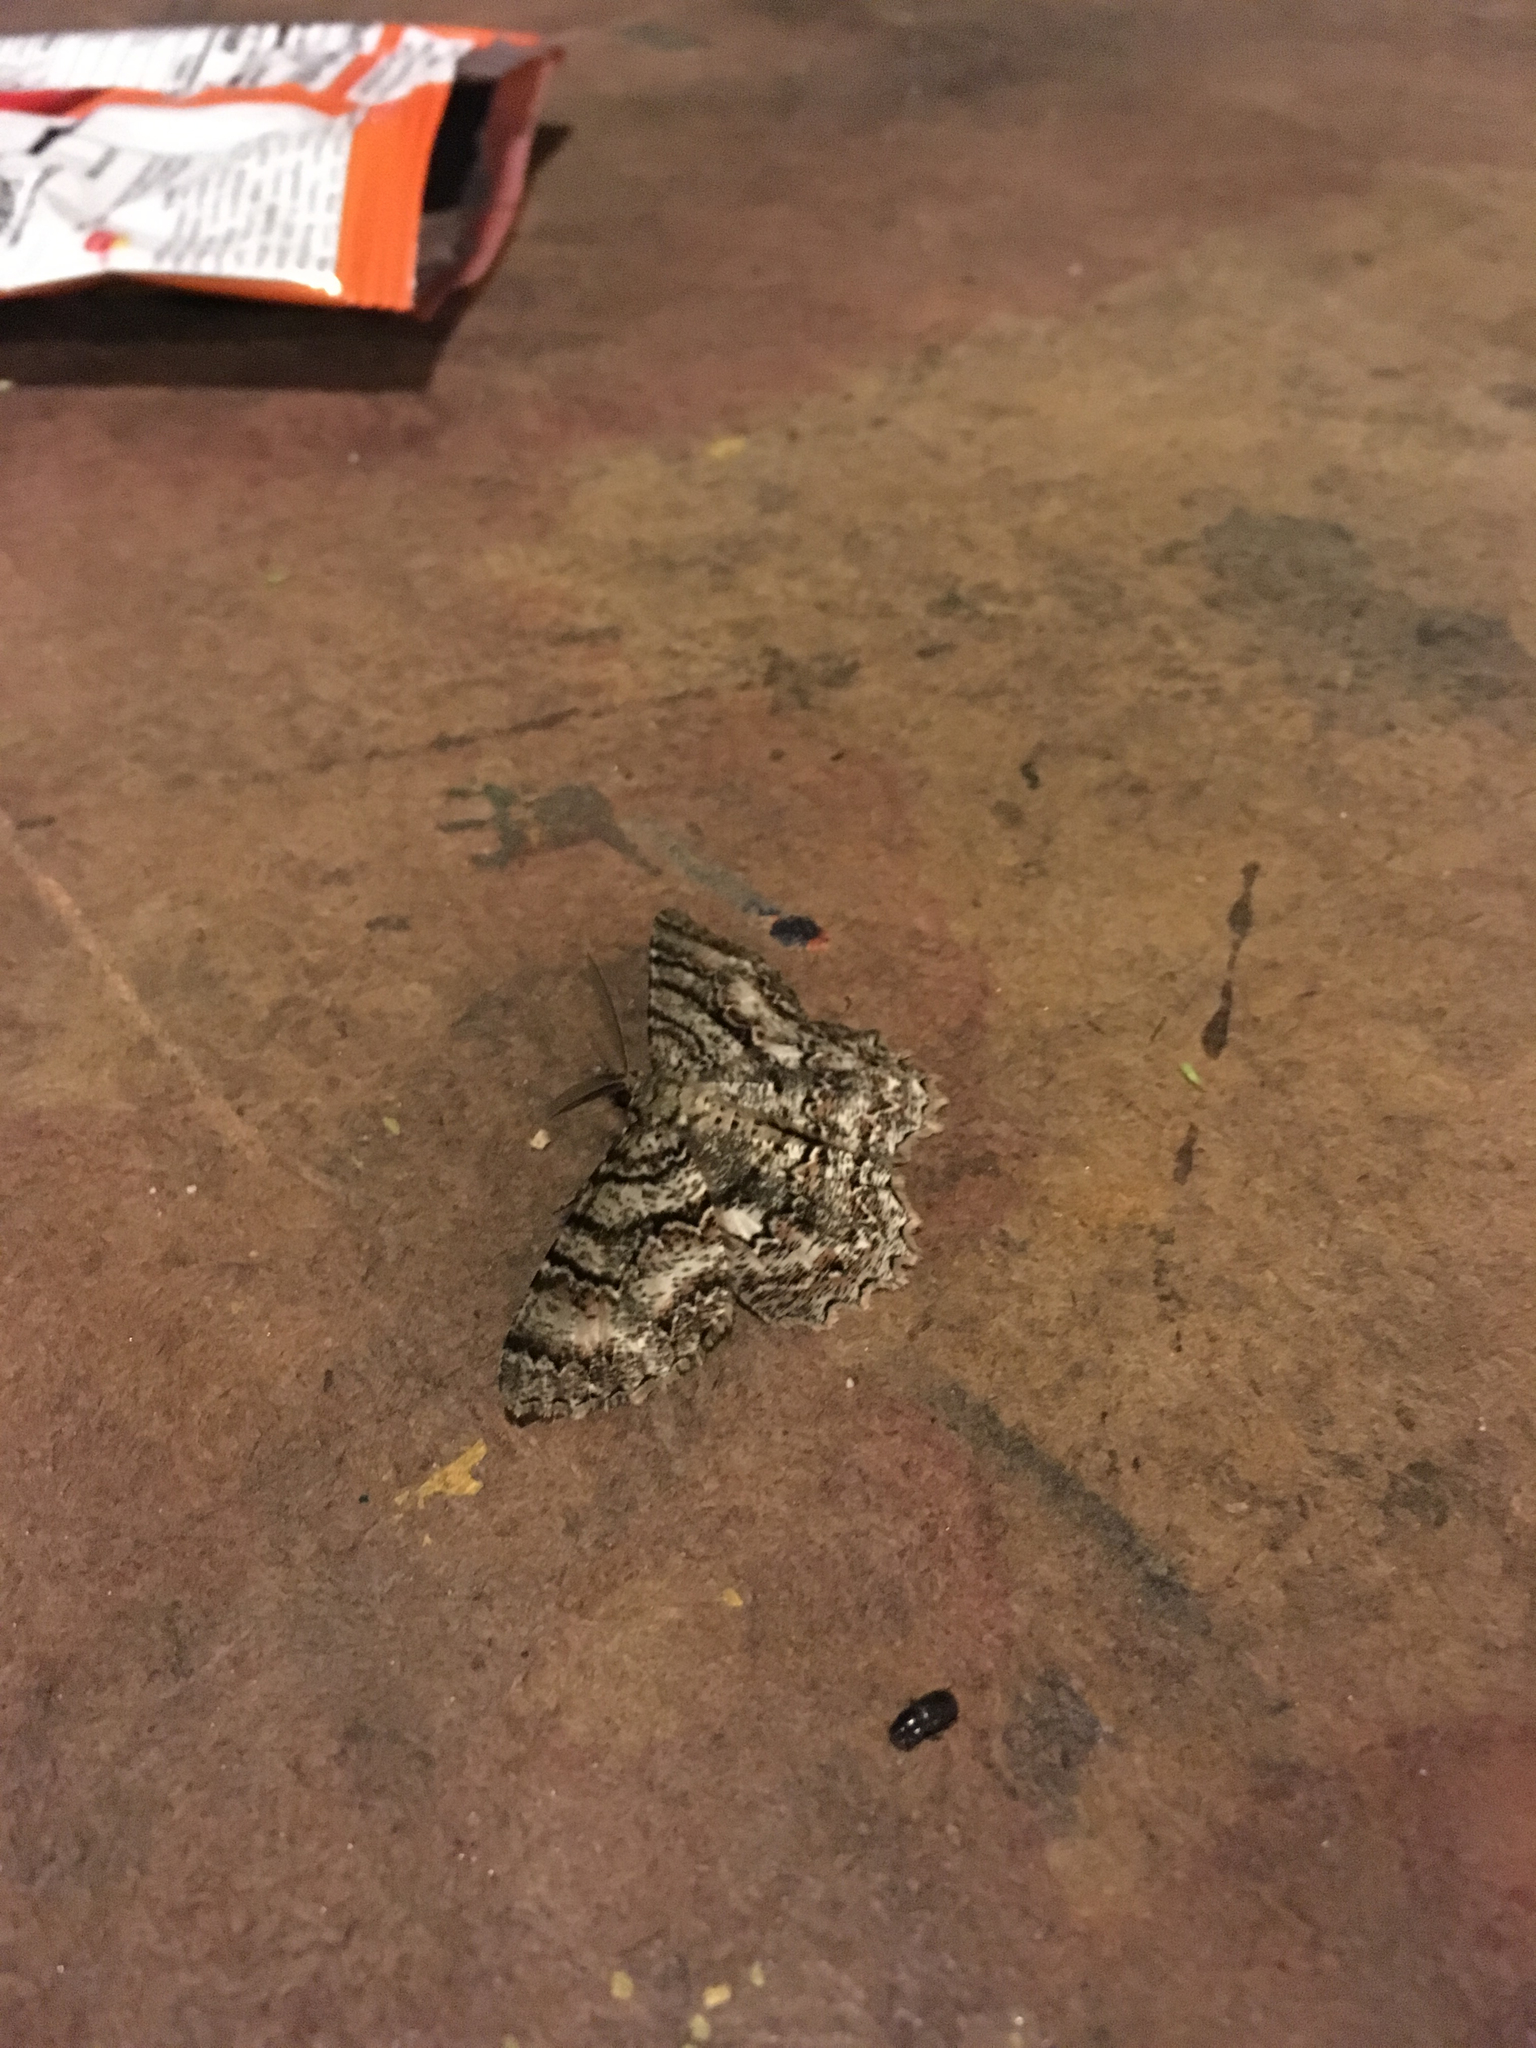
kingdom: Animalia
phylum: Arthropoda
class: Insecta
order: Lepidoptera
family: Geometridae
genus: Epimecis
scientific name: Epimecis hortaria
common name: Tulip-tree beauty
